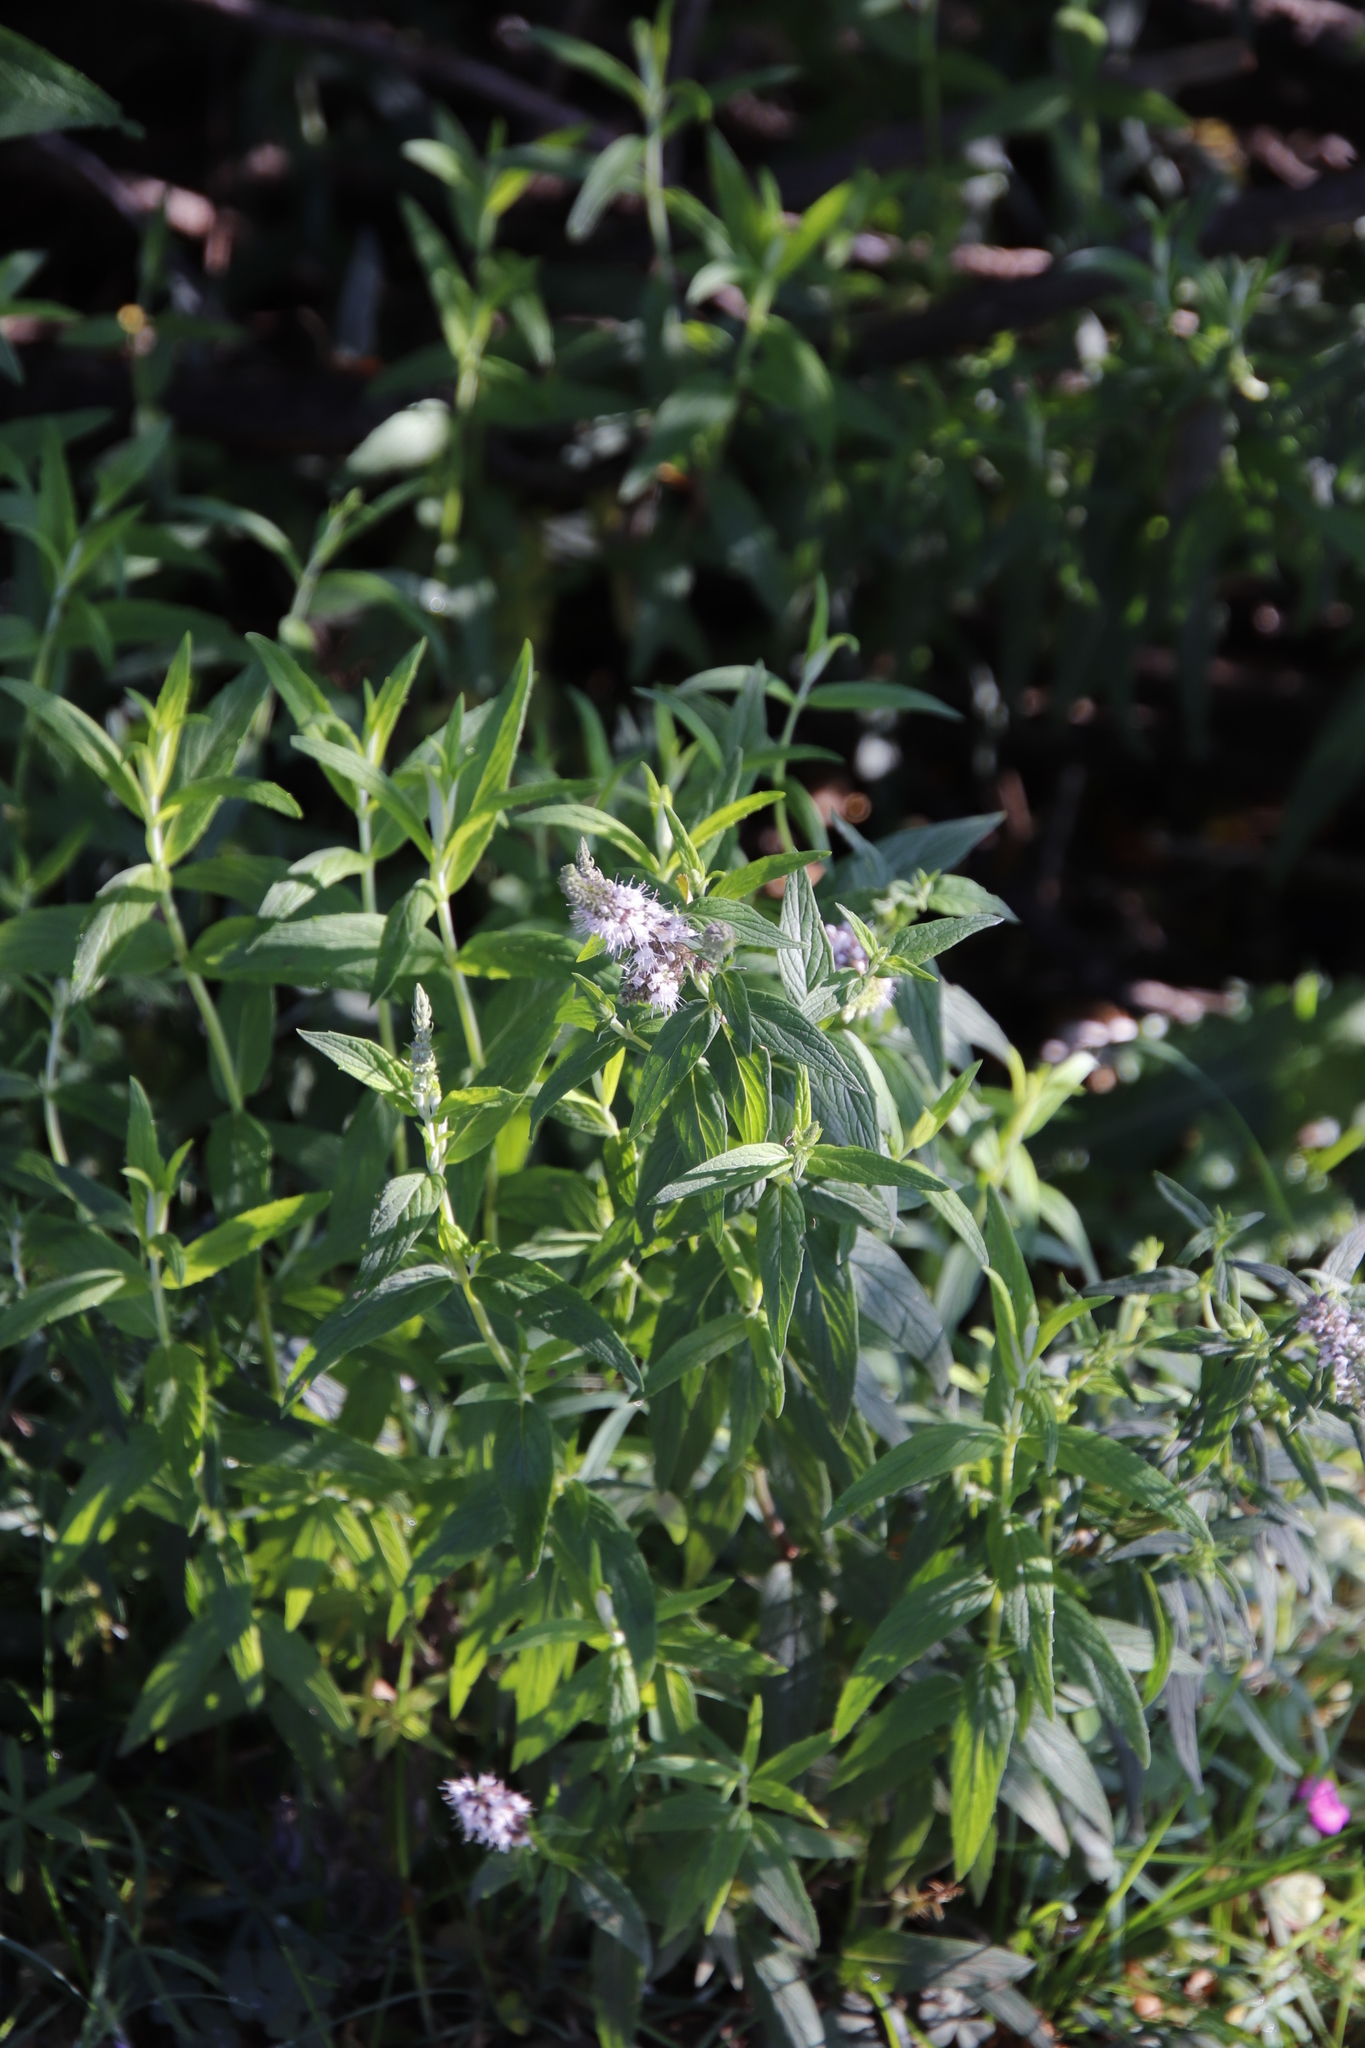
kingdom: Plantae
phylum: Tracheophyta
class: Magnoliopsida
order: Lamiales
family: Lamiaceae
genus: Mentha
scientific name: Mentha longifolia
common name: Horse mint
